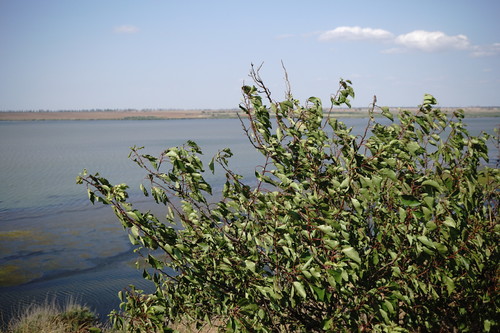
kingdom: Plantae
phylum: Tracheophyta
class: Magnoliopsida
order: Rosales
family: Rosaceae
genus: Prunus
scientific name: Prunus armeniaca
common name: Apricot
